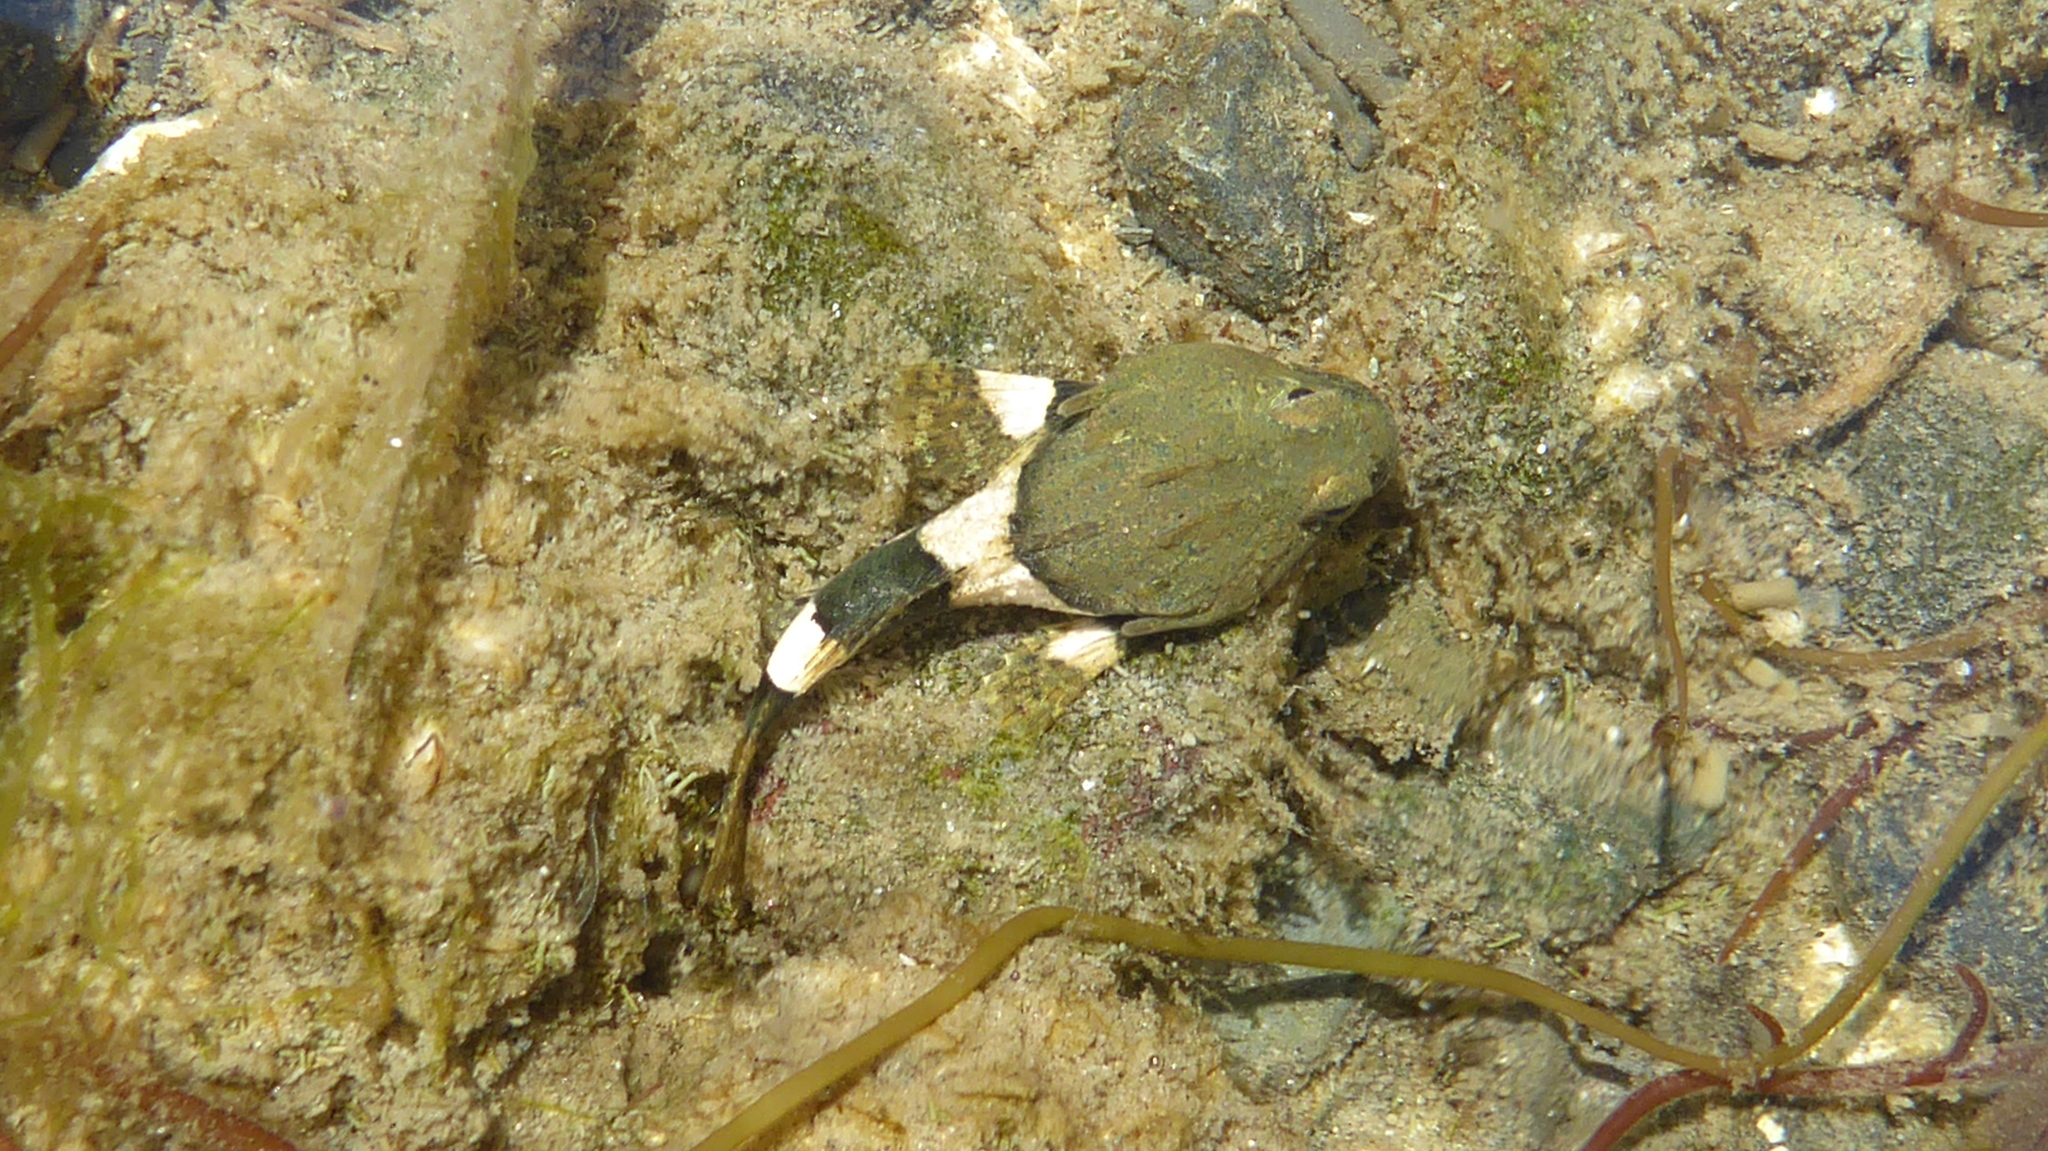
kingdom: Animalia
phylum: Chordata
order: Scorpaeniformes
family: Cottidae
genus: Enophrys
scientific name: Enophrys bison
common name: Buffalo sculpin
